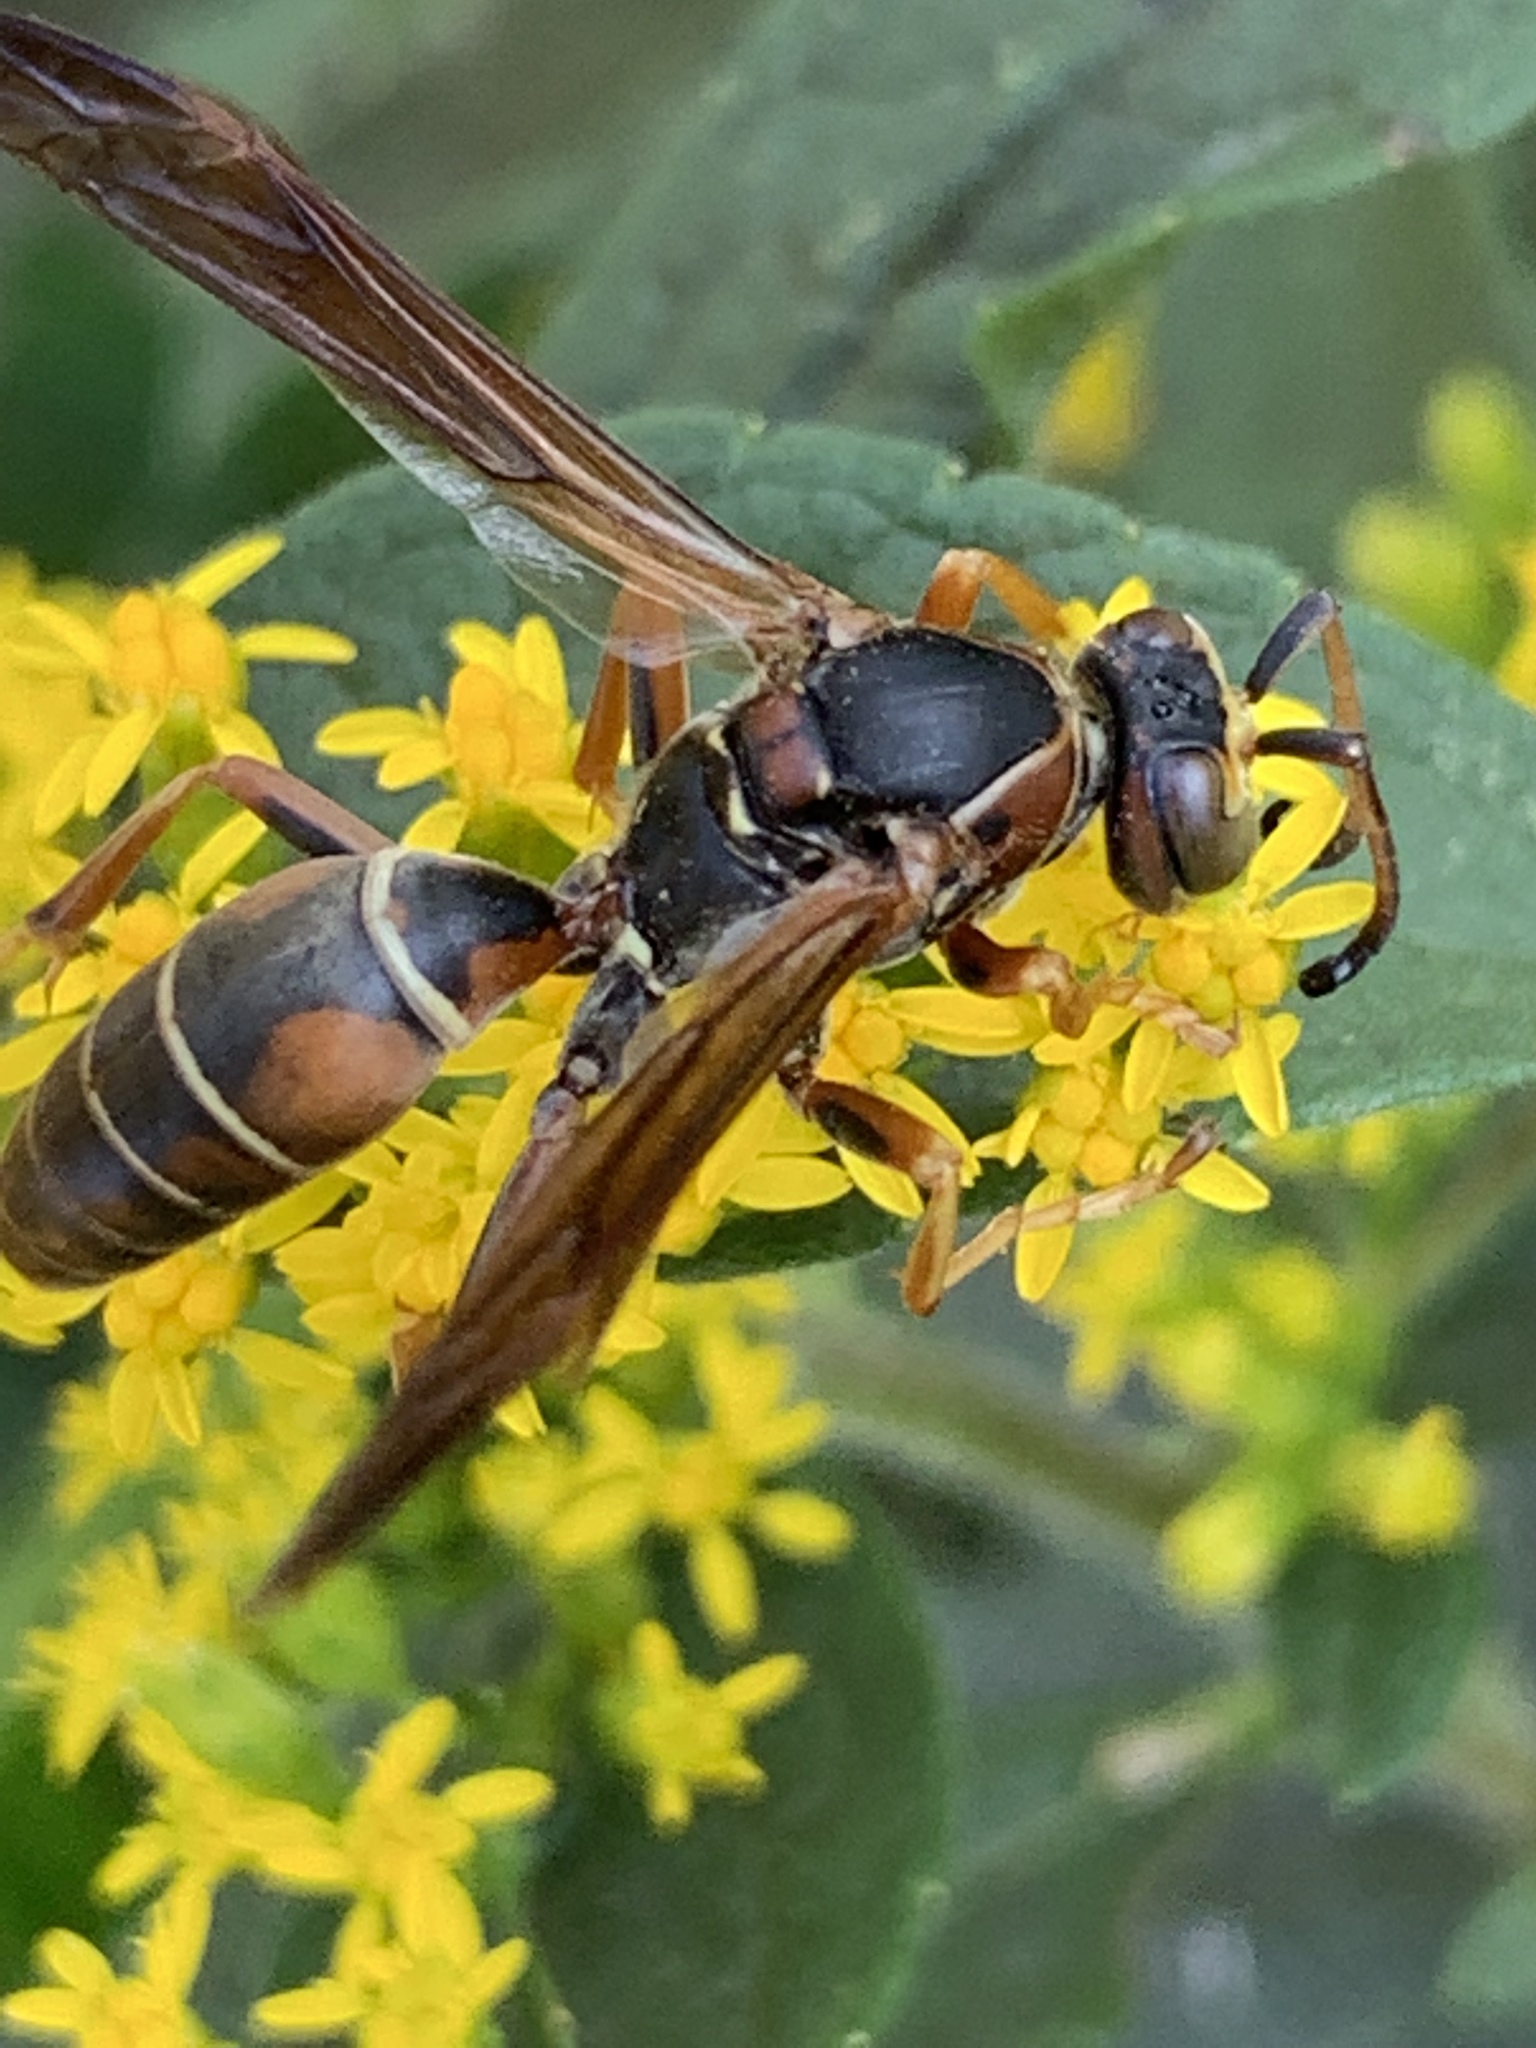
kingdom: Animalia
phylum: Arthropoda
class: Insecta
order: Hymenoptera
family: Eumenidae
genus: Polistes
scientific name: Polistes fuscatus
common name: Dark paper wasp
